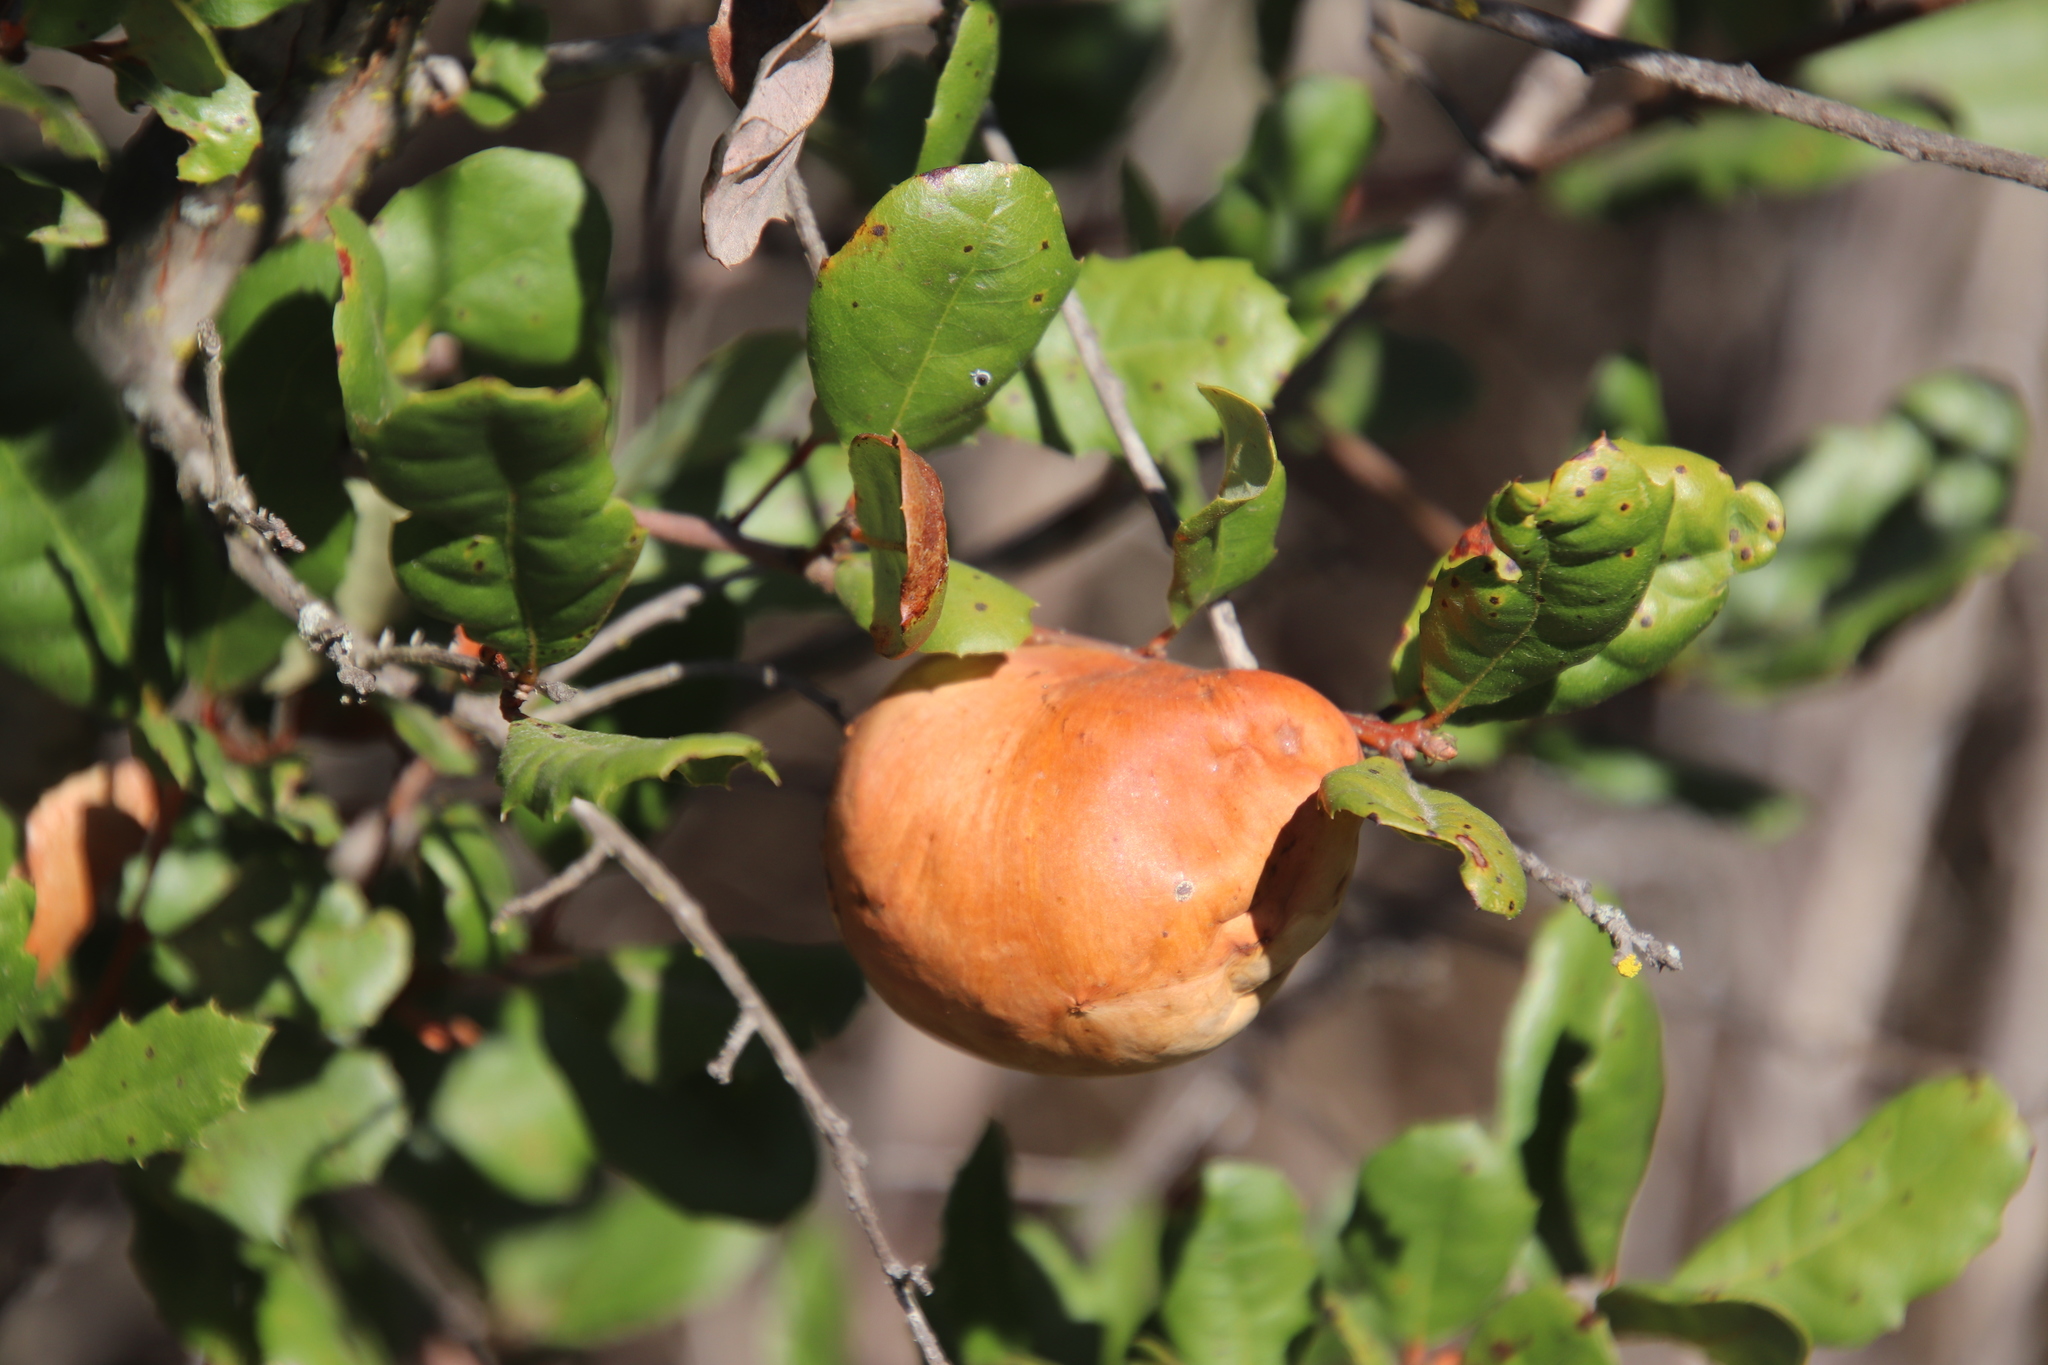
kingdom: Animalia
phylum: Arthropoda
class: Insecta
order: Hymenoptera
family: Cynipidae
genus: Andricus
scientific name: Andricus quercuscalifornicus
